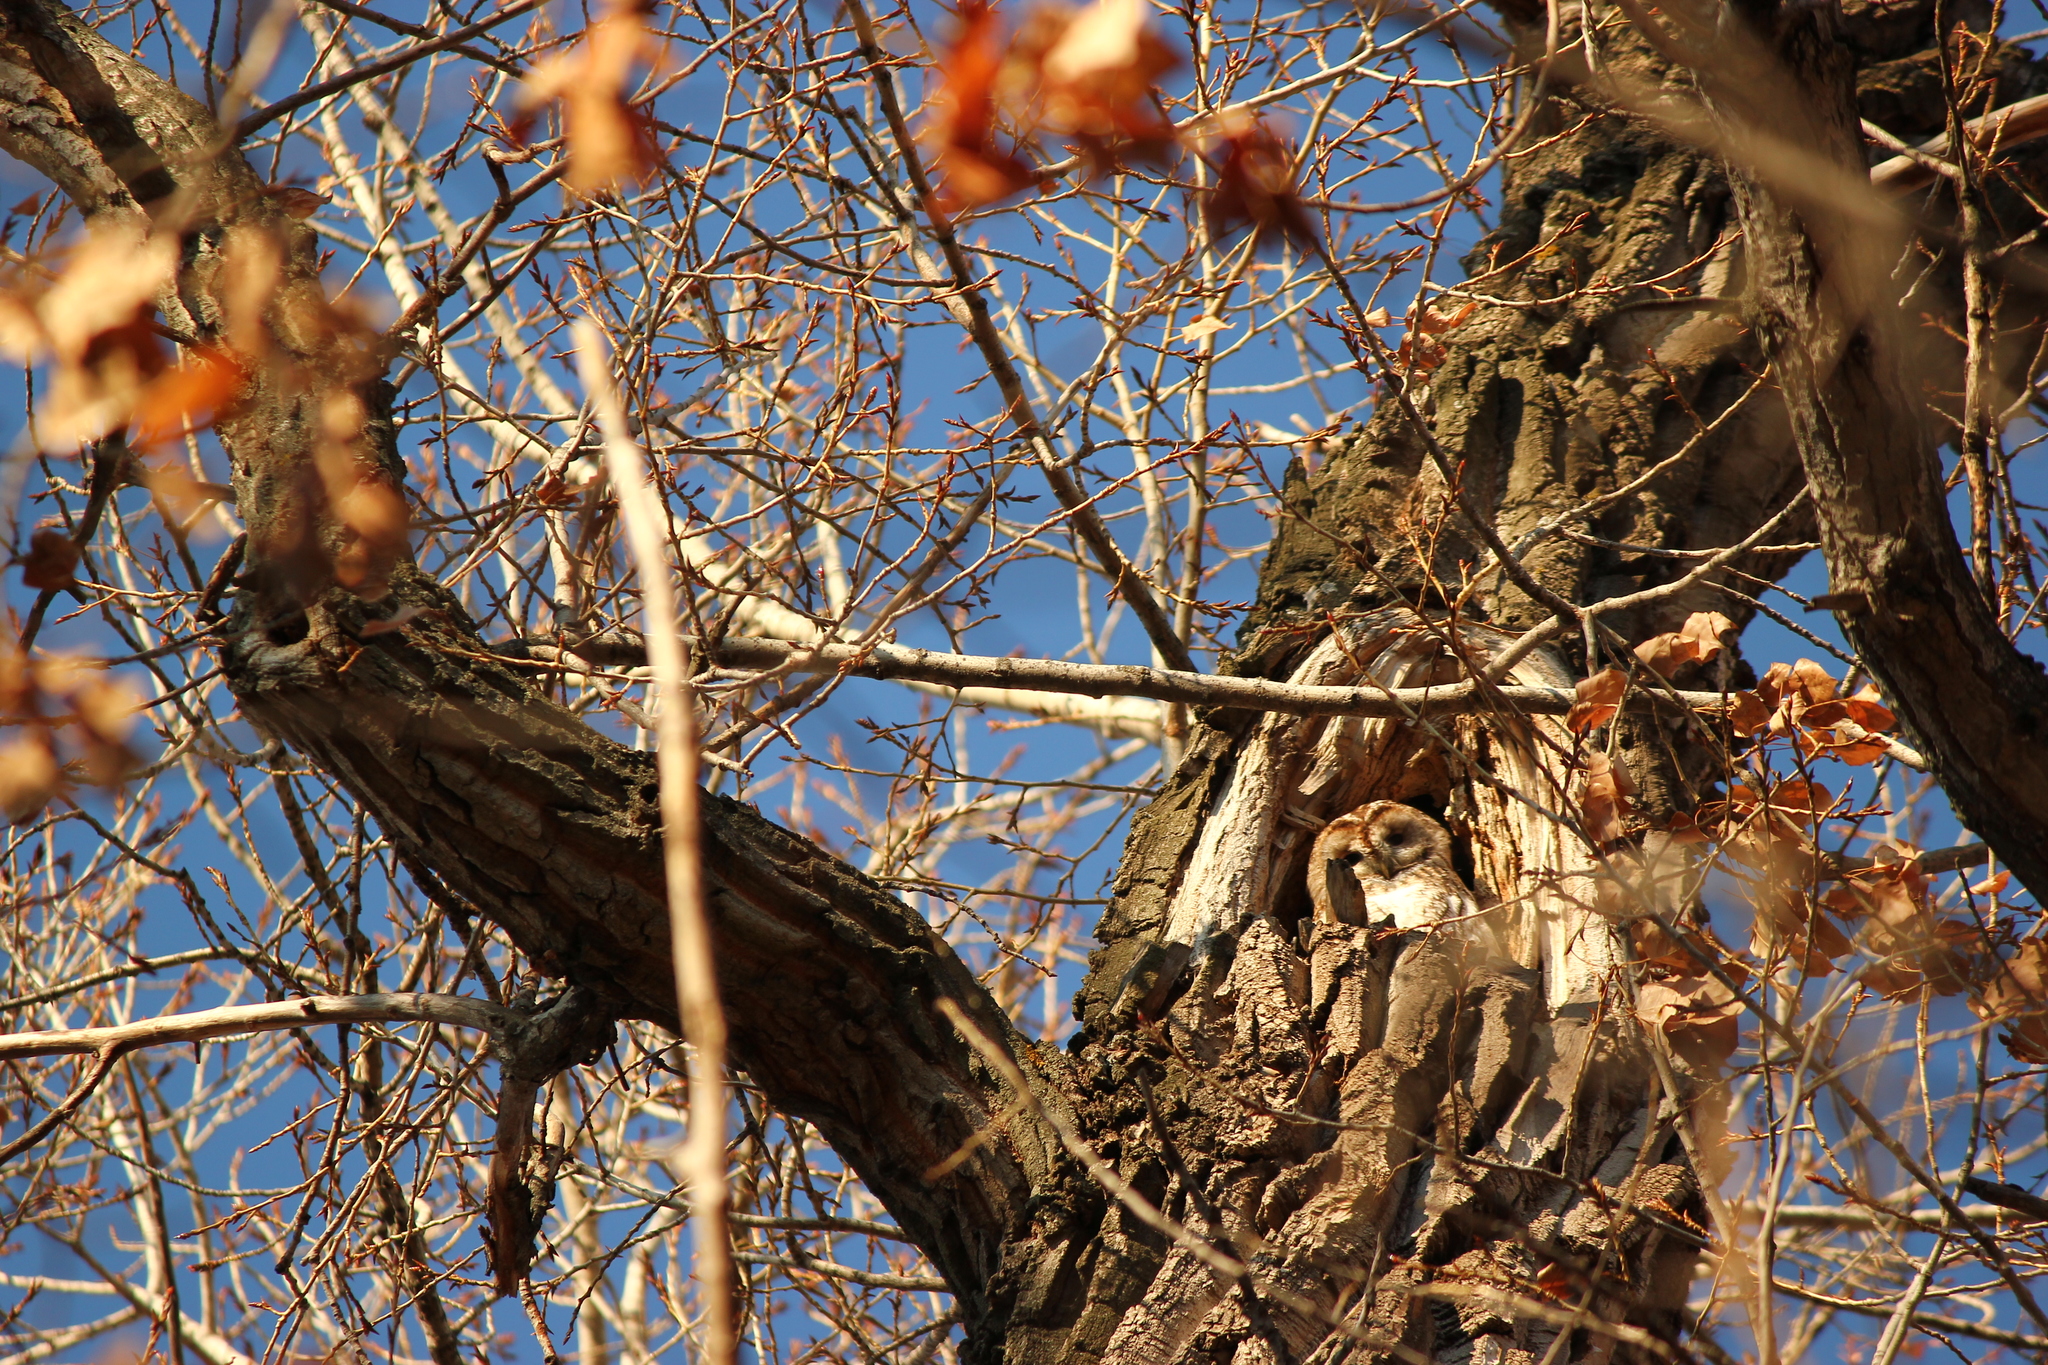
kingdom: Animalia
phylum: Chordata
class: Aves
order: Strigiformes
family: Strigidae
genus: Strix
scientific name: Strix aluco
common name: Tawny owl
